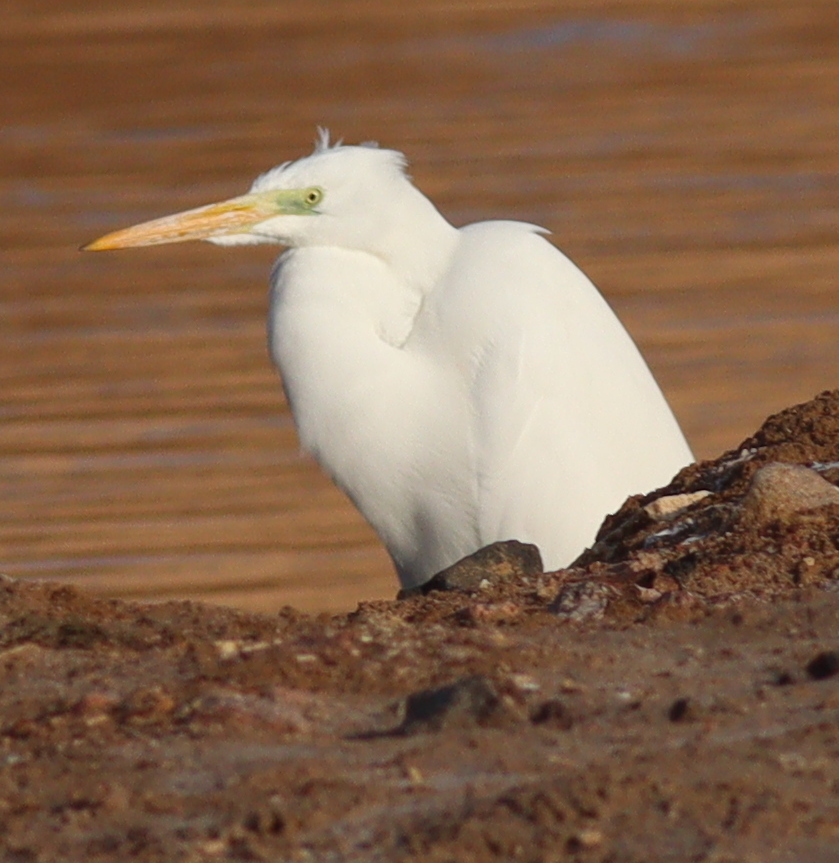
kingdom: Animalia
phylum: Chordata
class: Aves
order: Pelecaniformes
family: Ardeidae
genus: Ardea
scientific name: Ardea alba
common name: Great egret
